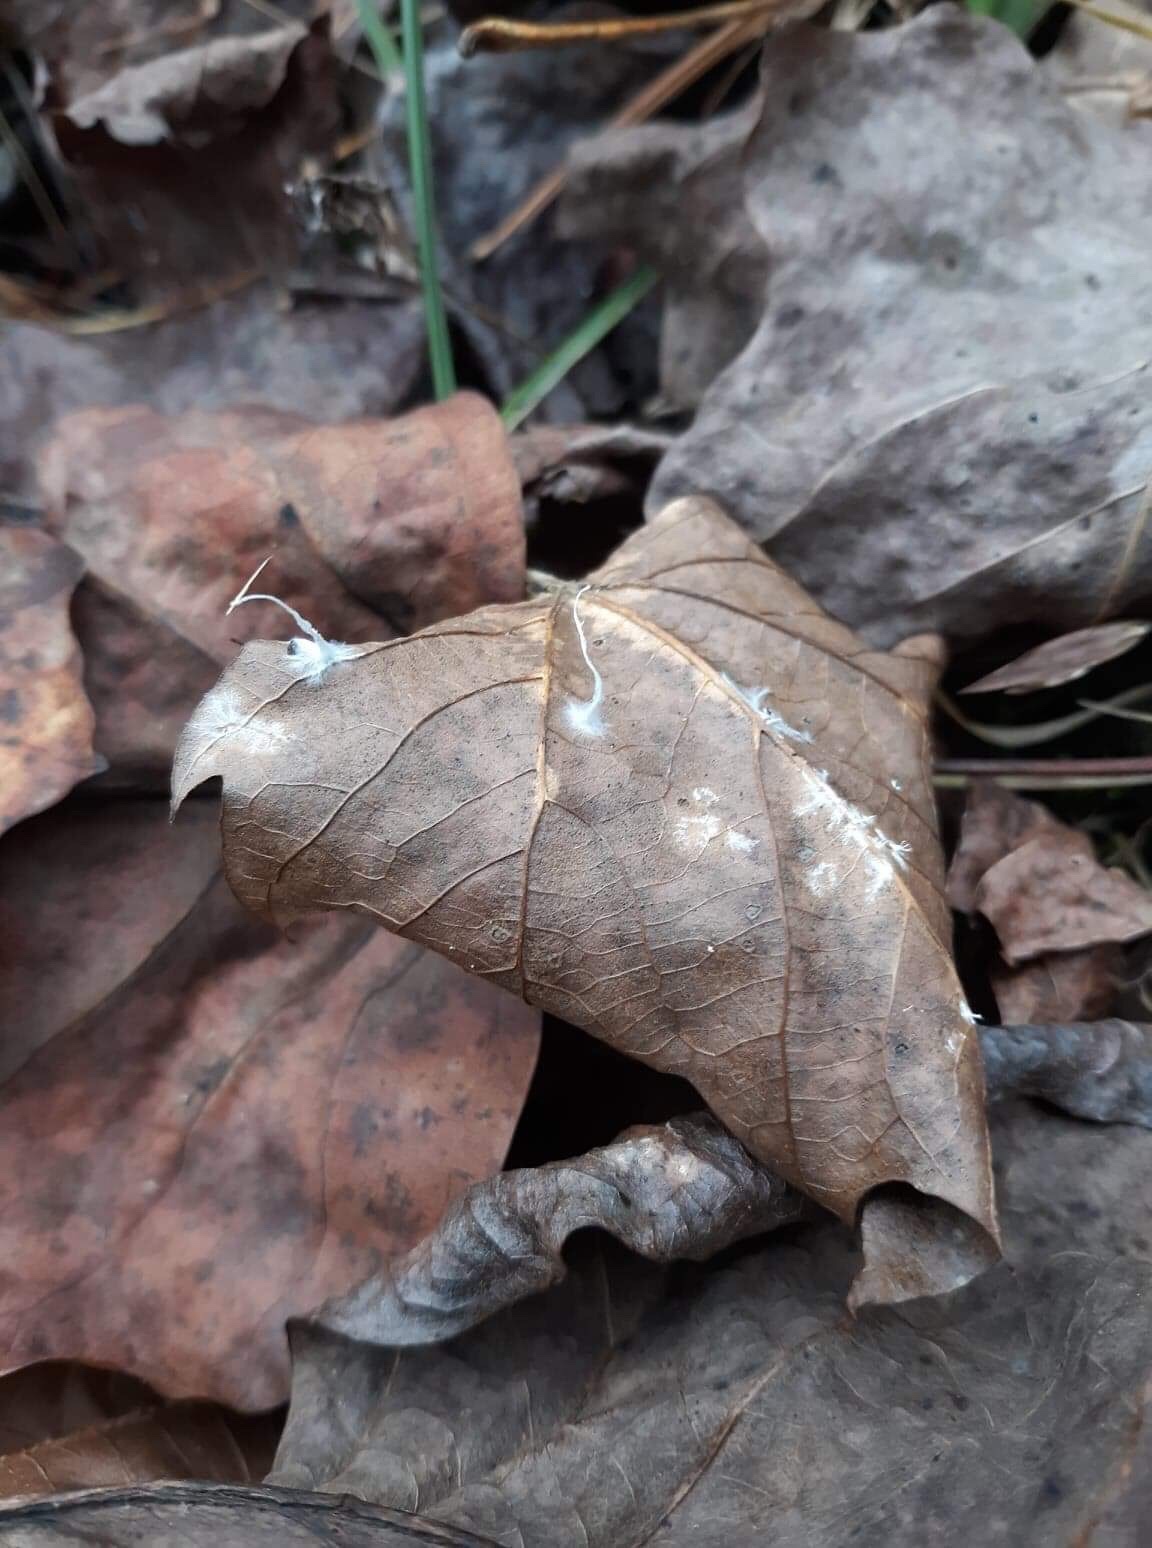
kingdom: Fungi
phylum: Basidiomycota
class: Agaricomycetes
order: Sebacinales
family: Sebacinaceae
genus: Sebacina
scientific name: Sebacina incrustans
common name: Enveloping crust
